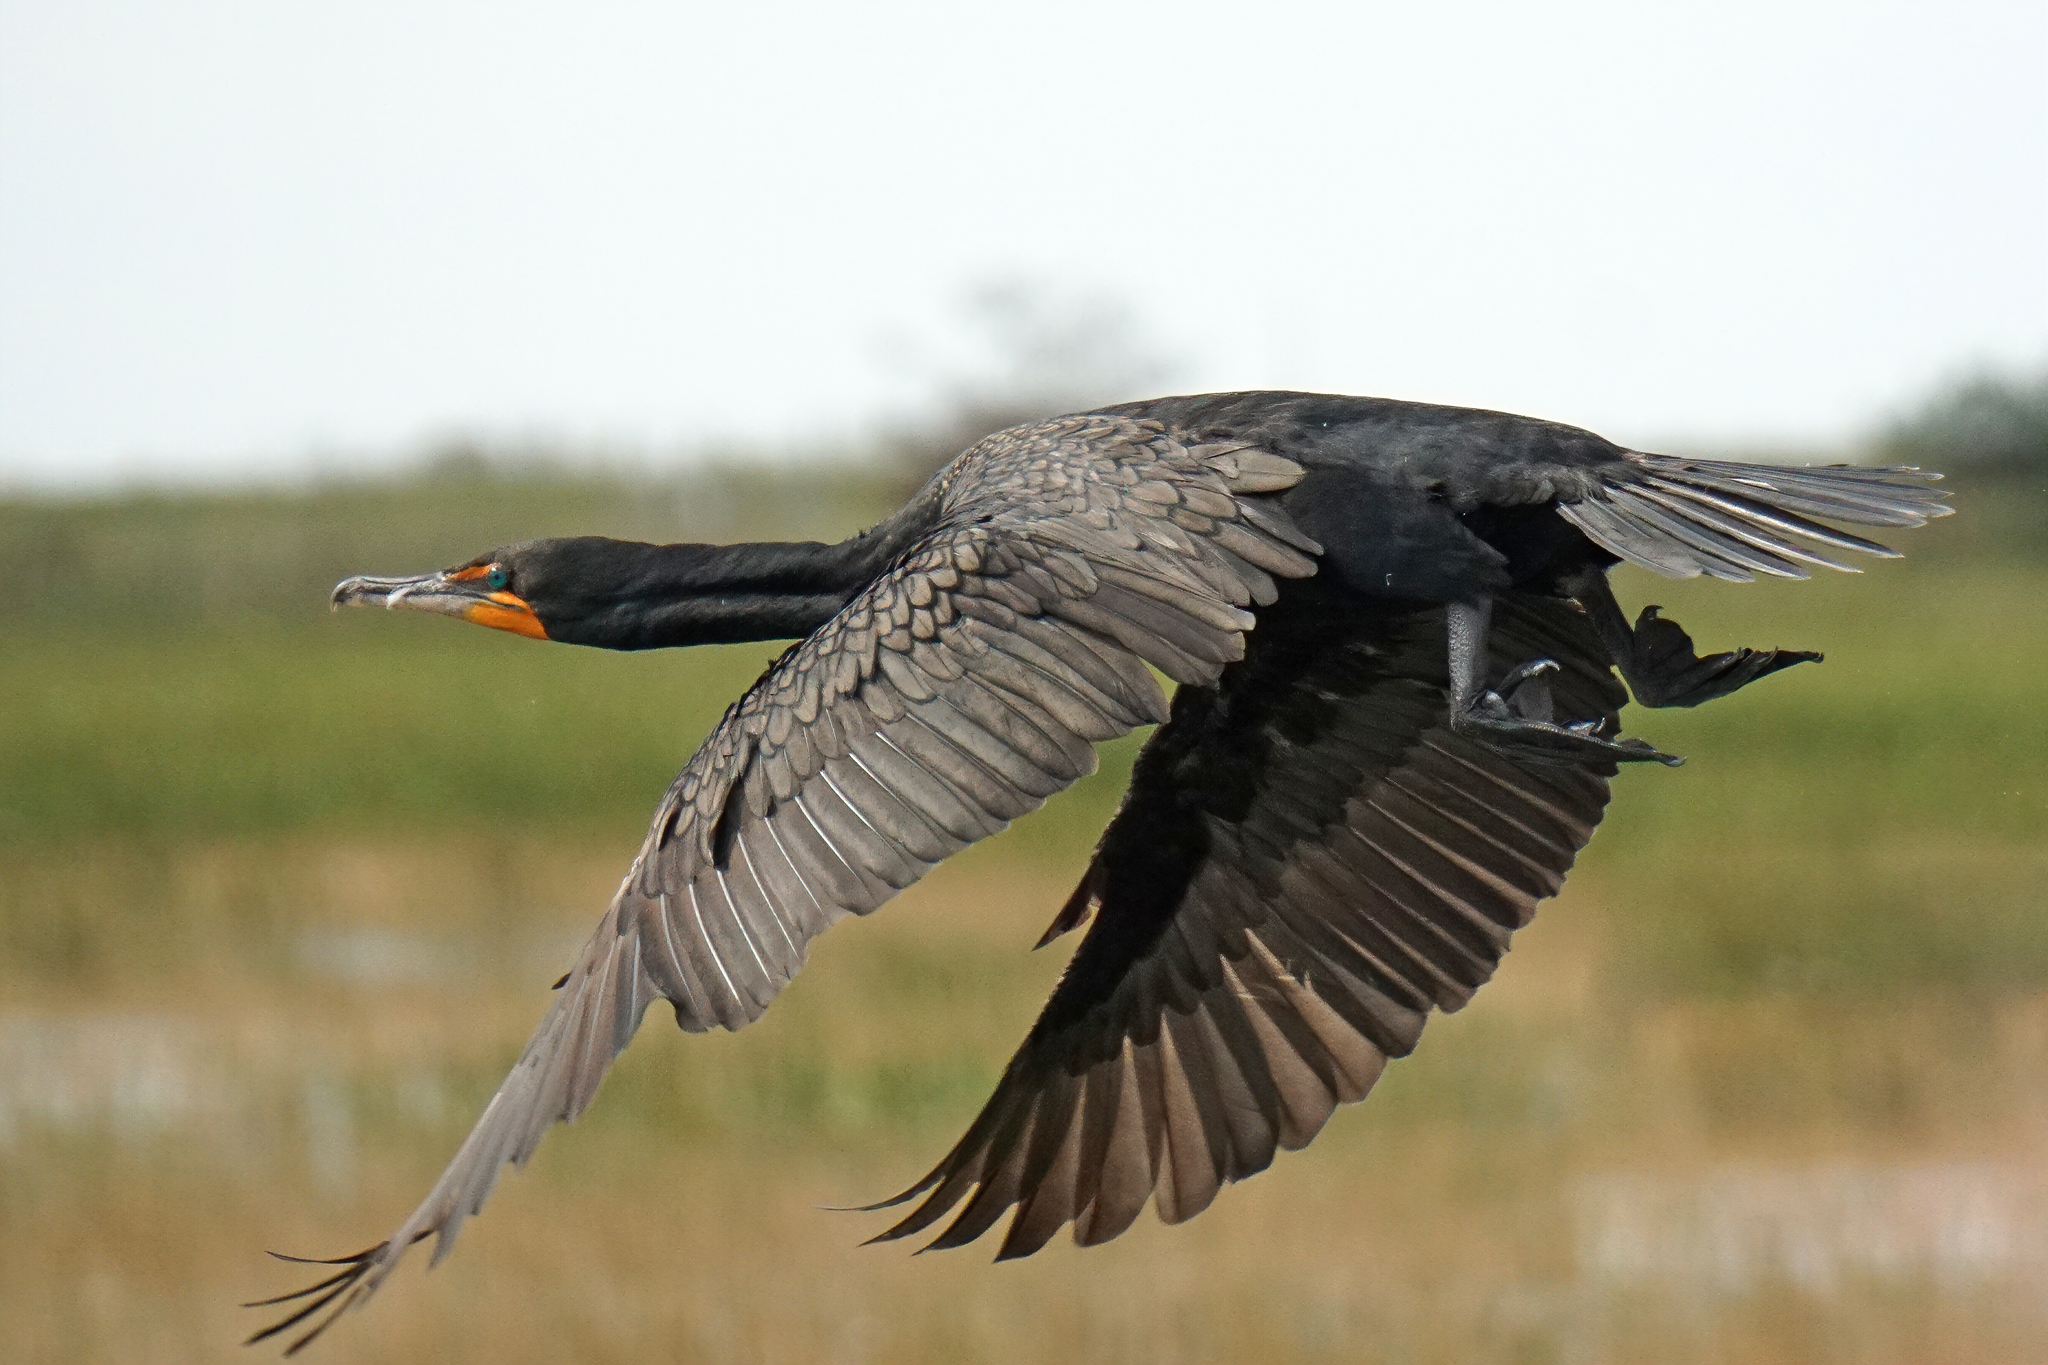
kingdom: Animalia
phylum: Chordata
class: Aves
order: Suliformes
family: Phalacrocoracidae
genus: Phalacrocorax
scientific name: Phalacrocorax auritus
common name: Double-crested cormorant
